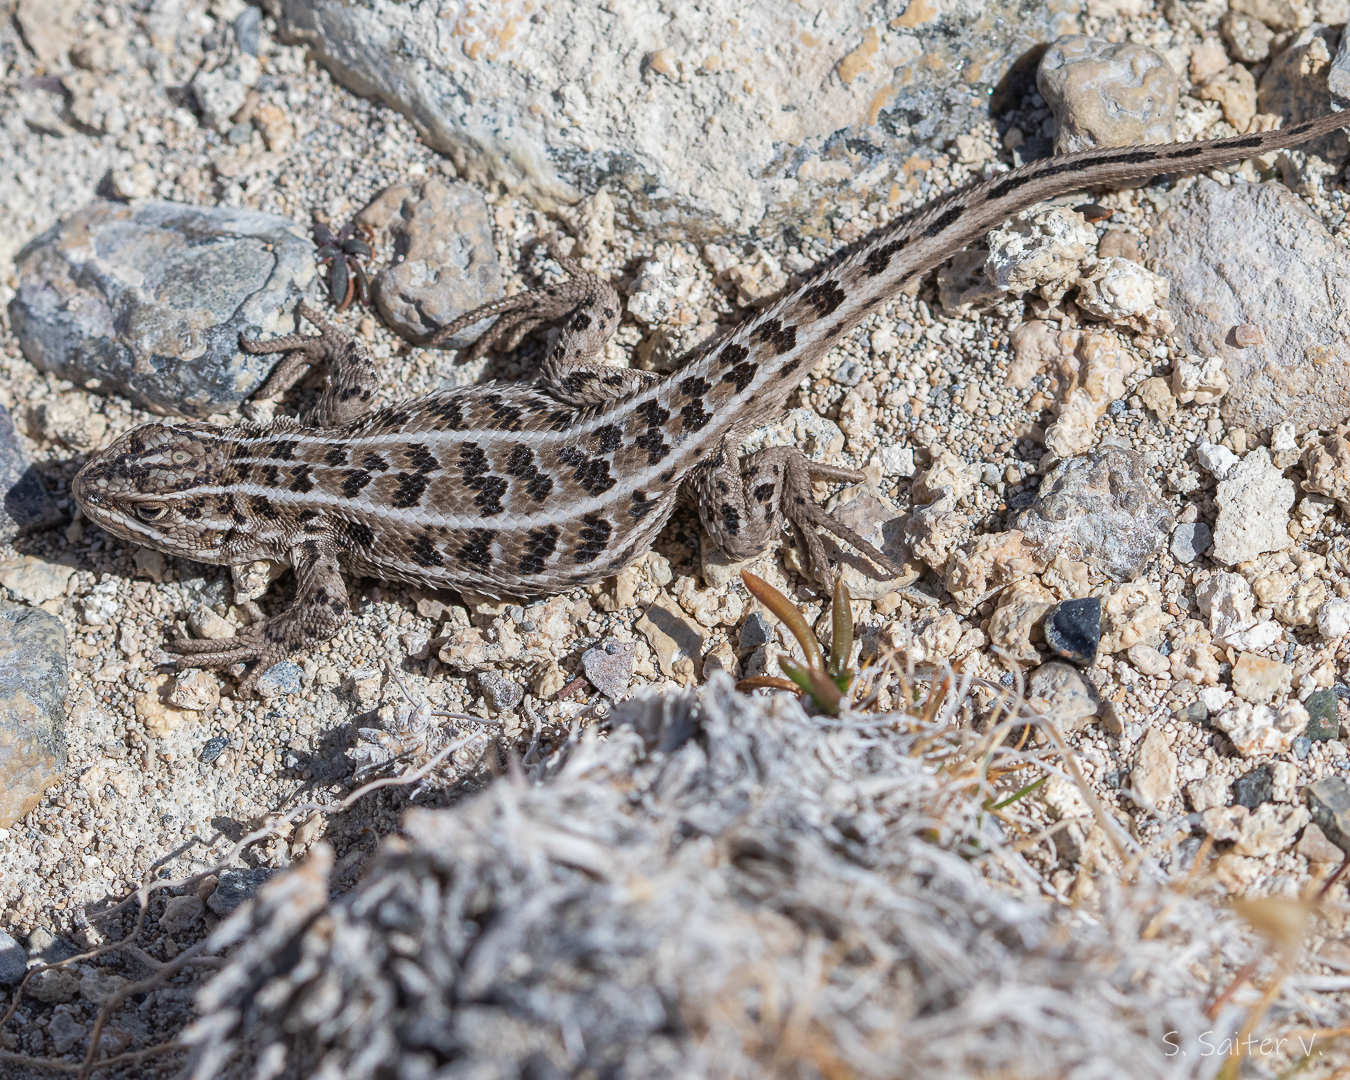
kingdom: Animalia
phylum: Chordata
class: Squamata
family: Liolaemidae
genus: Liolaemus
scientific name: Liolaemus magellanicus
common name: Magellan's tree iguana
